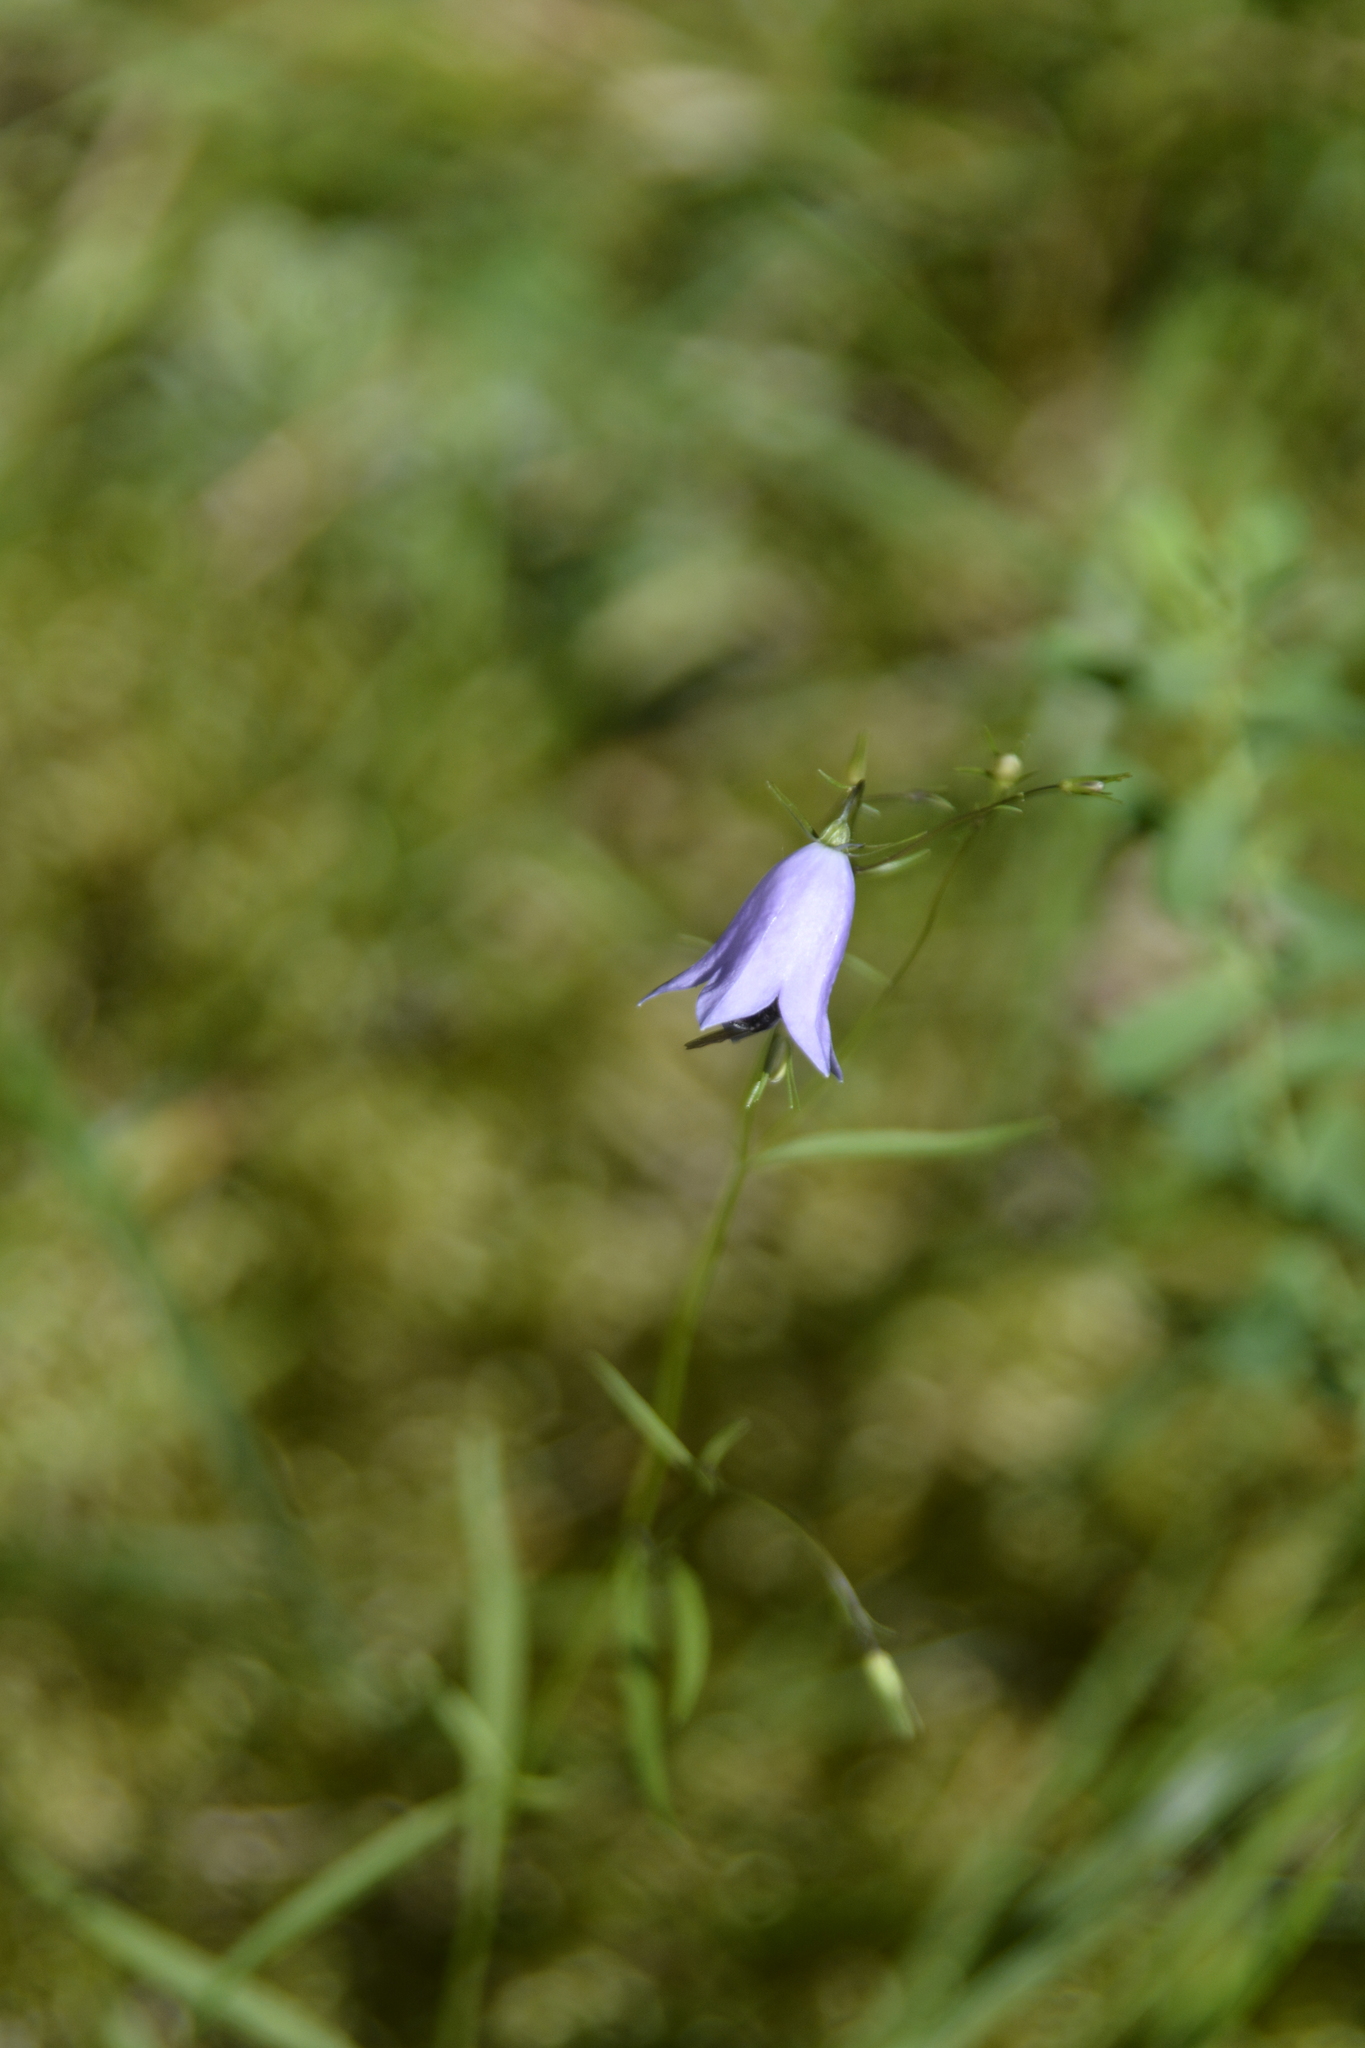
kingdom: Plantae
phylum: Tracheophyta
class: Magnoliopsida
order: Asterales
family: Campanulaceae
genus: Campanula
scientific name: Campanula rotundifolia
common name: Harebell
